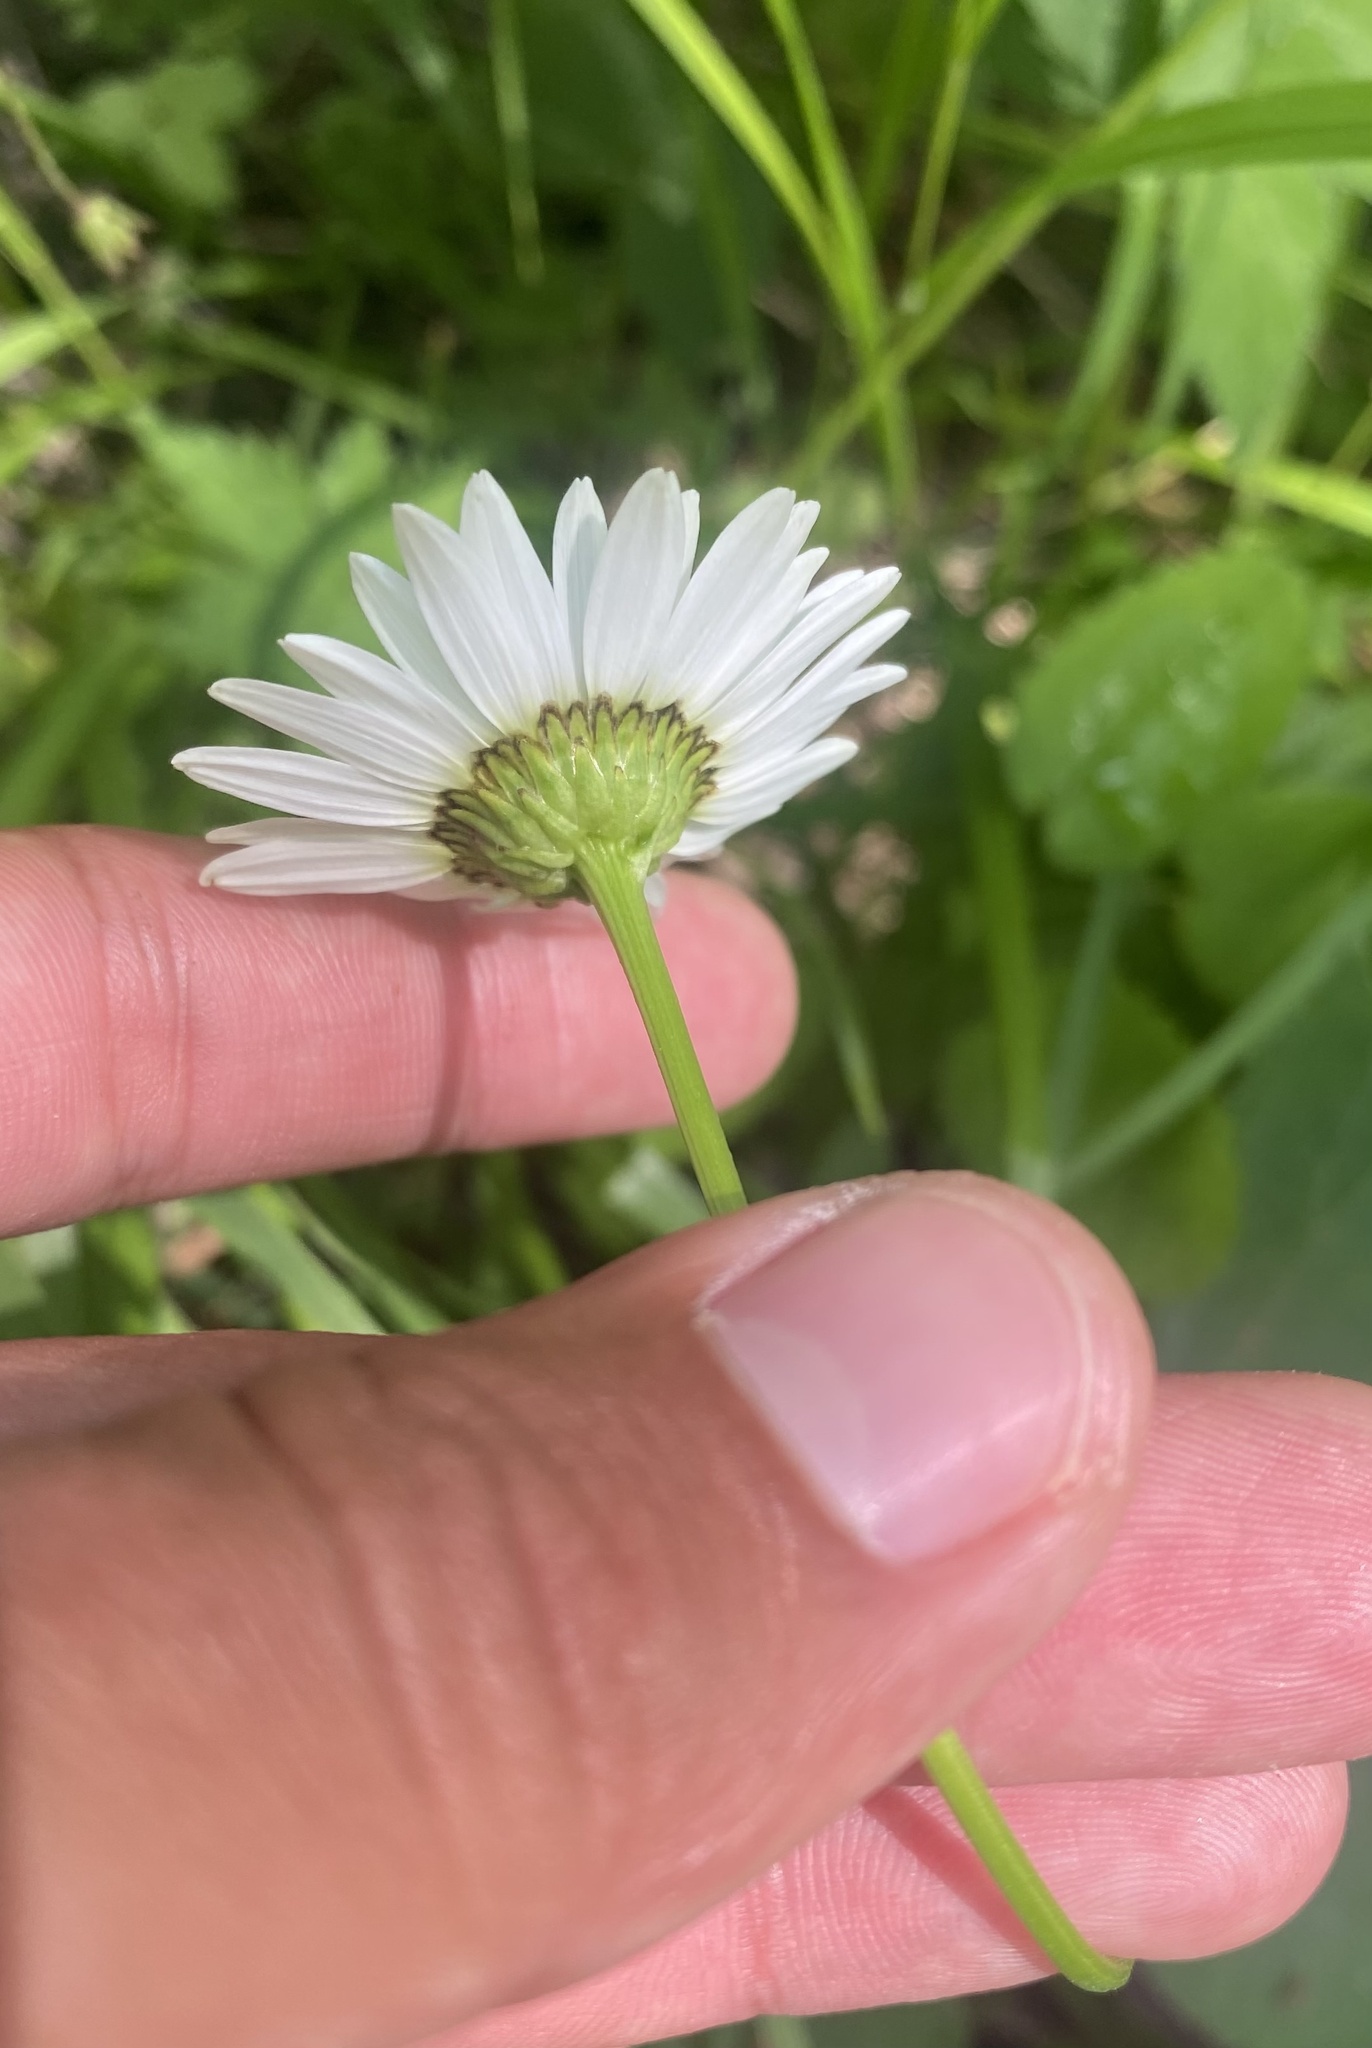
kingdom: Plantae
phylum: Tracheophyta
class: Magnoliopsida
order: Asterales
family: Asteraceae
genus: Leucanthemum
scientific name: Leucanthemum ircutianum
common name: Daisy
